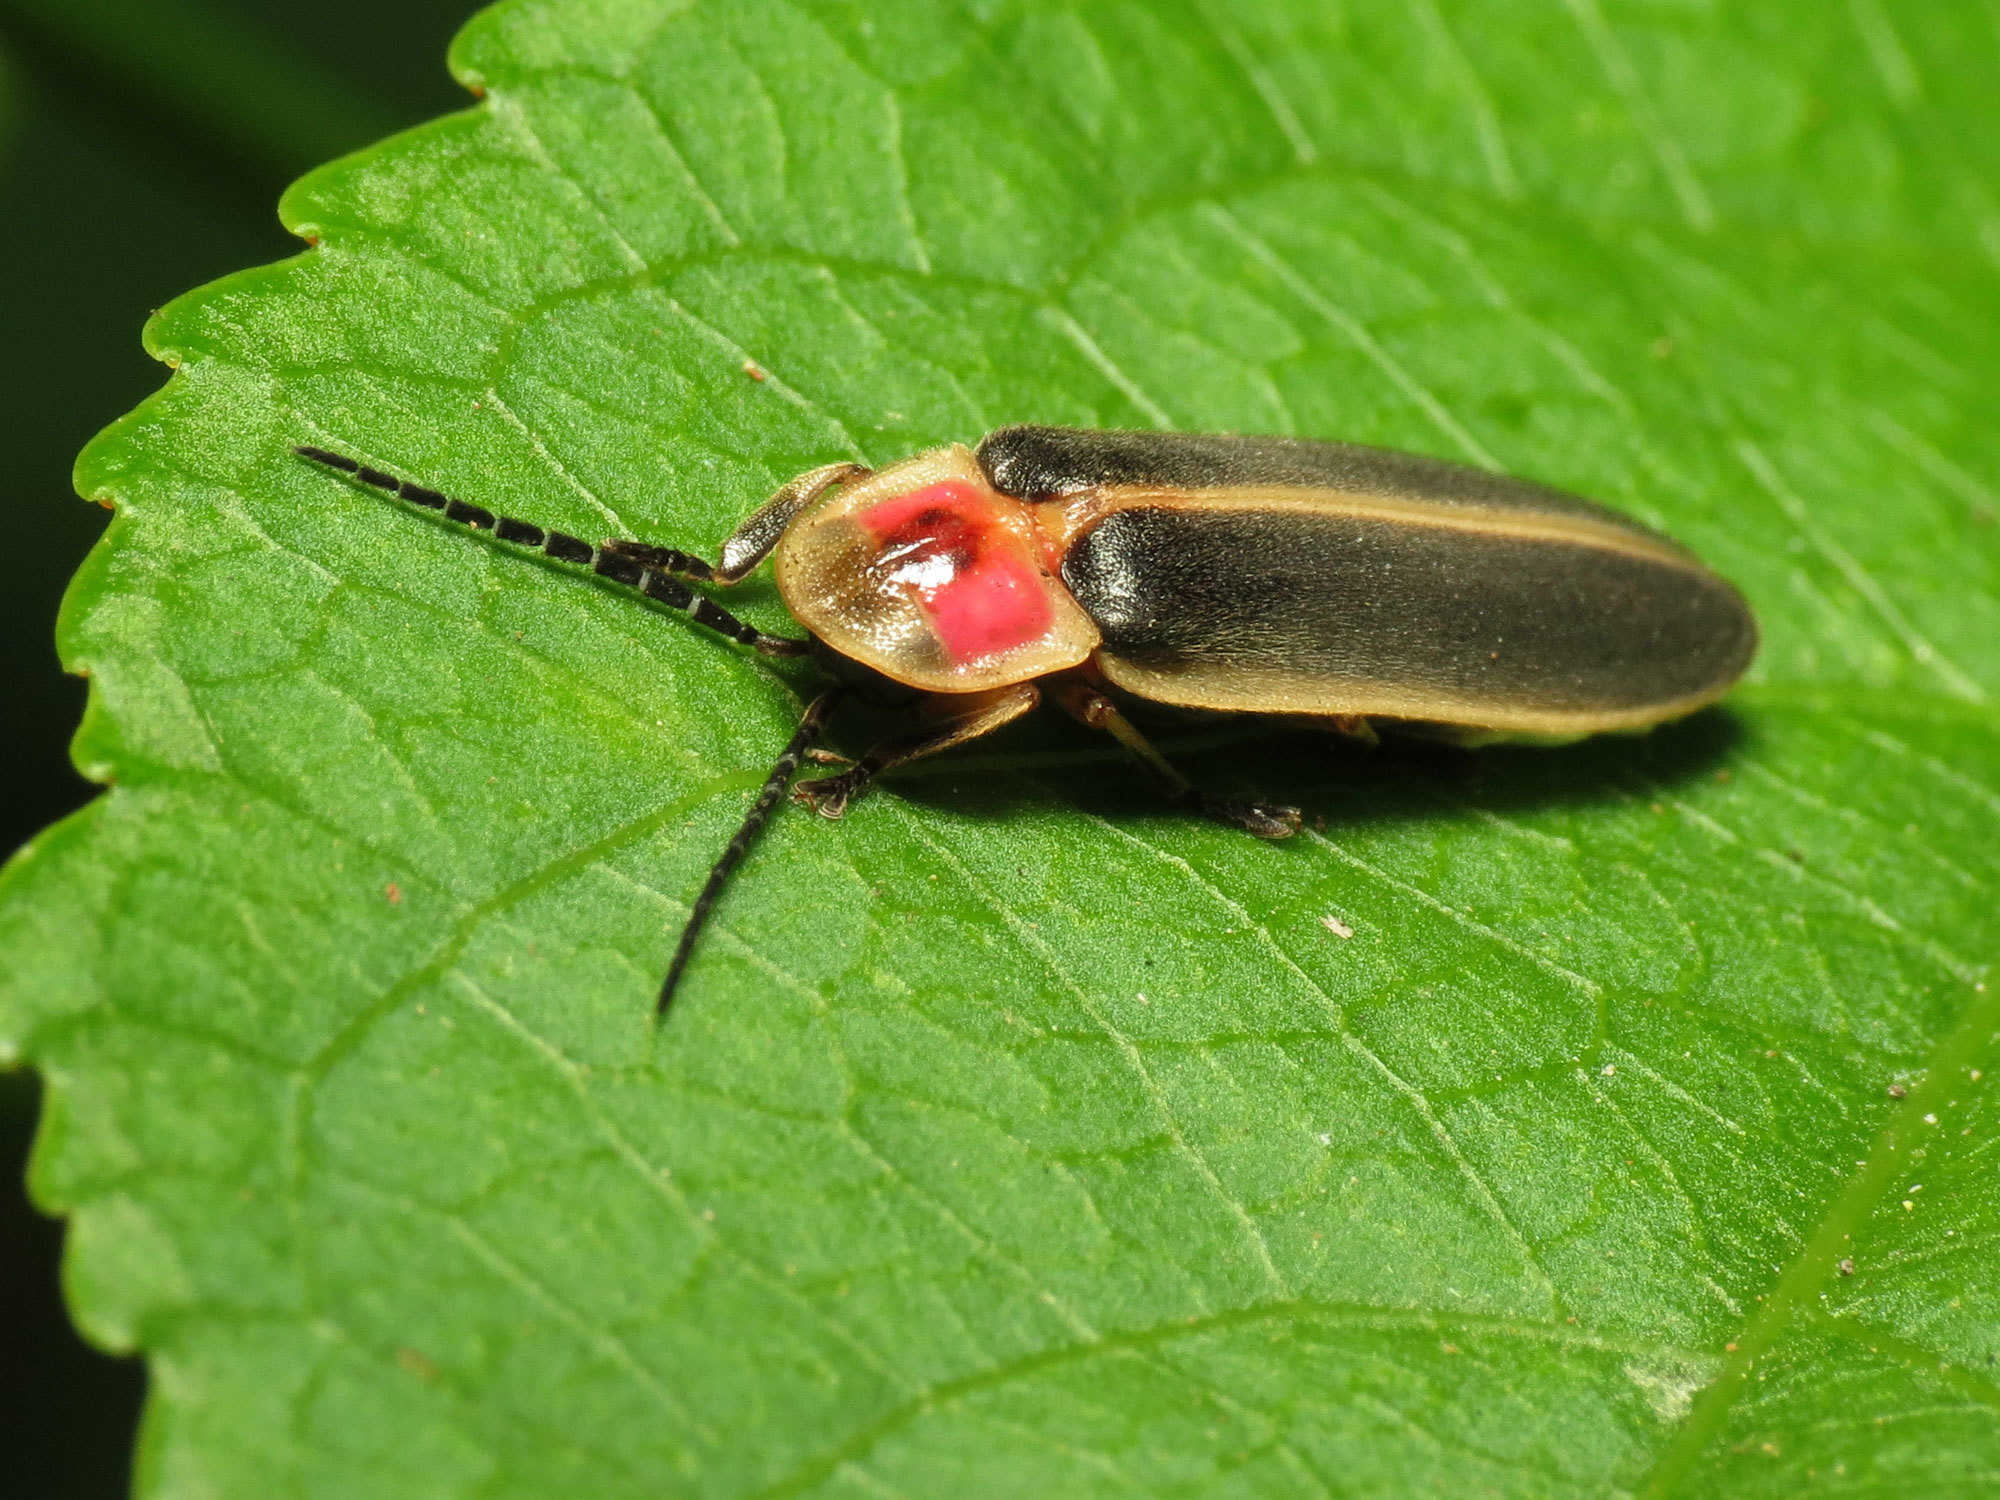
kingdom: Animalia
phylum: Arthropoda
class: Insecta
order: Coleoptera
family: Lampyridae
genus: Photinus
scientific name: Photinus pyralis
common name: Big dipper firefly
